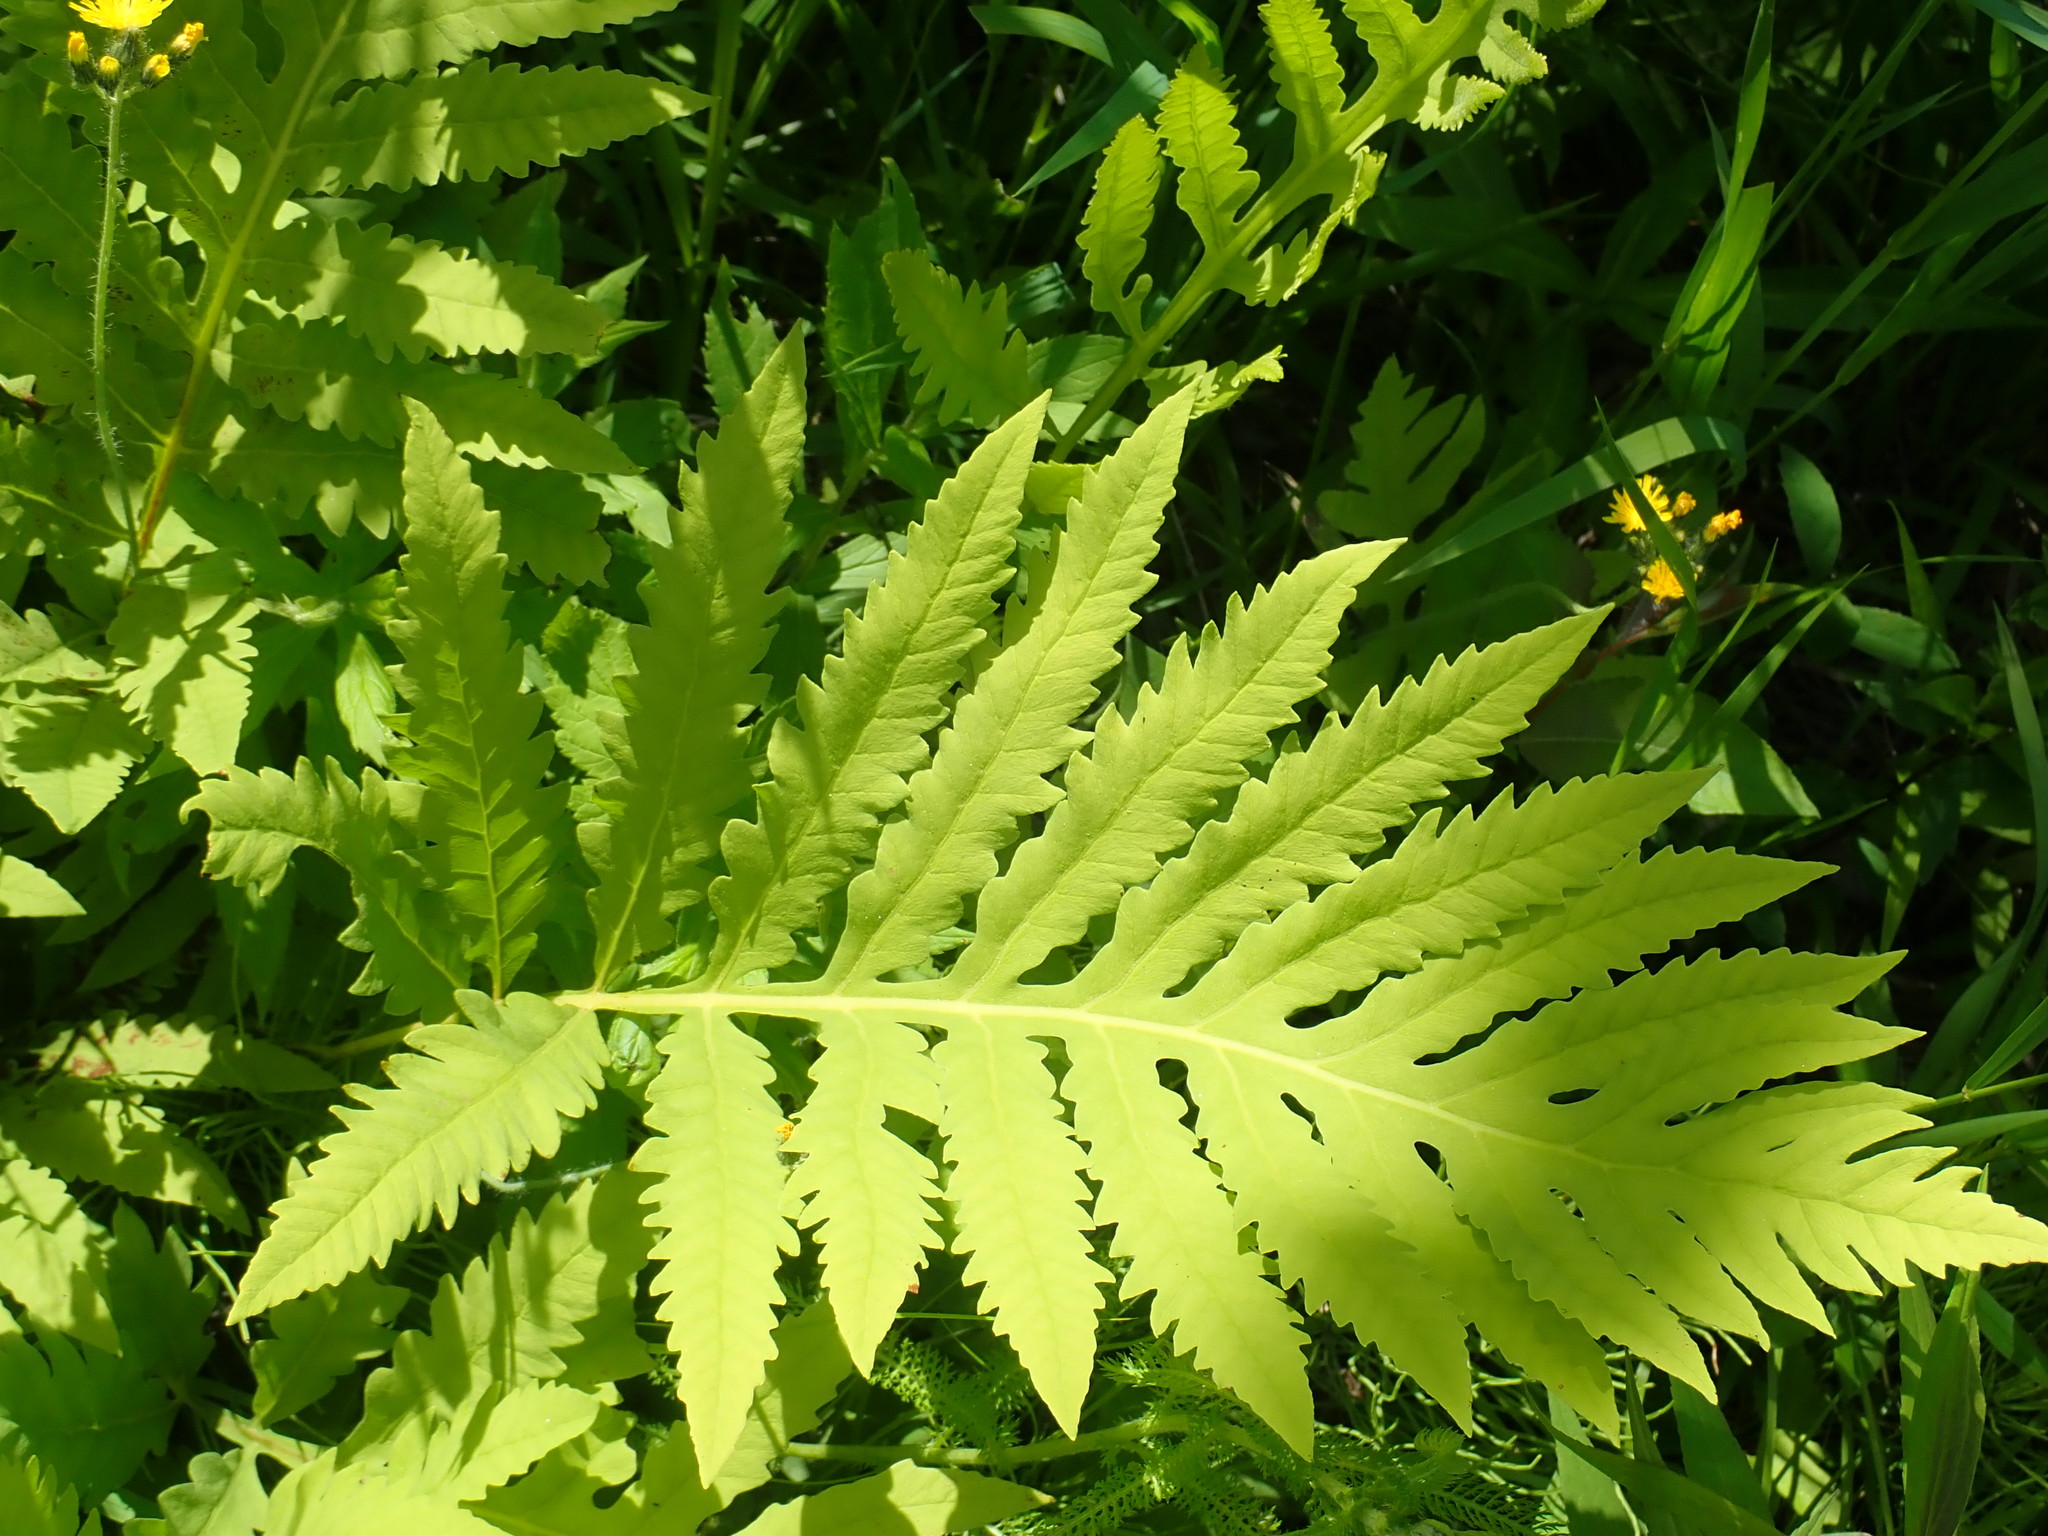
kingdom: Plantae
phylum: Tracheophyta
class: Polypodiopsida
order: Polypodiales
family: Onocleaceae
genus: Onoclea
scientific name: Onoclea sensibilis
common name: Sensitive fern
